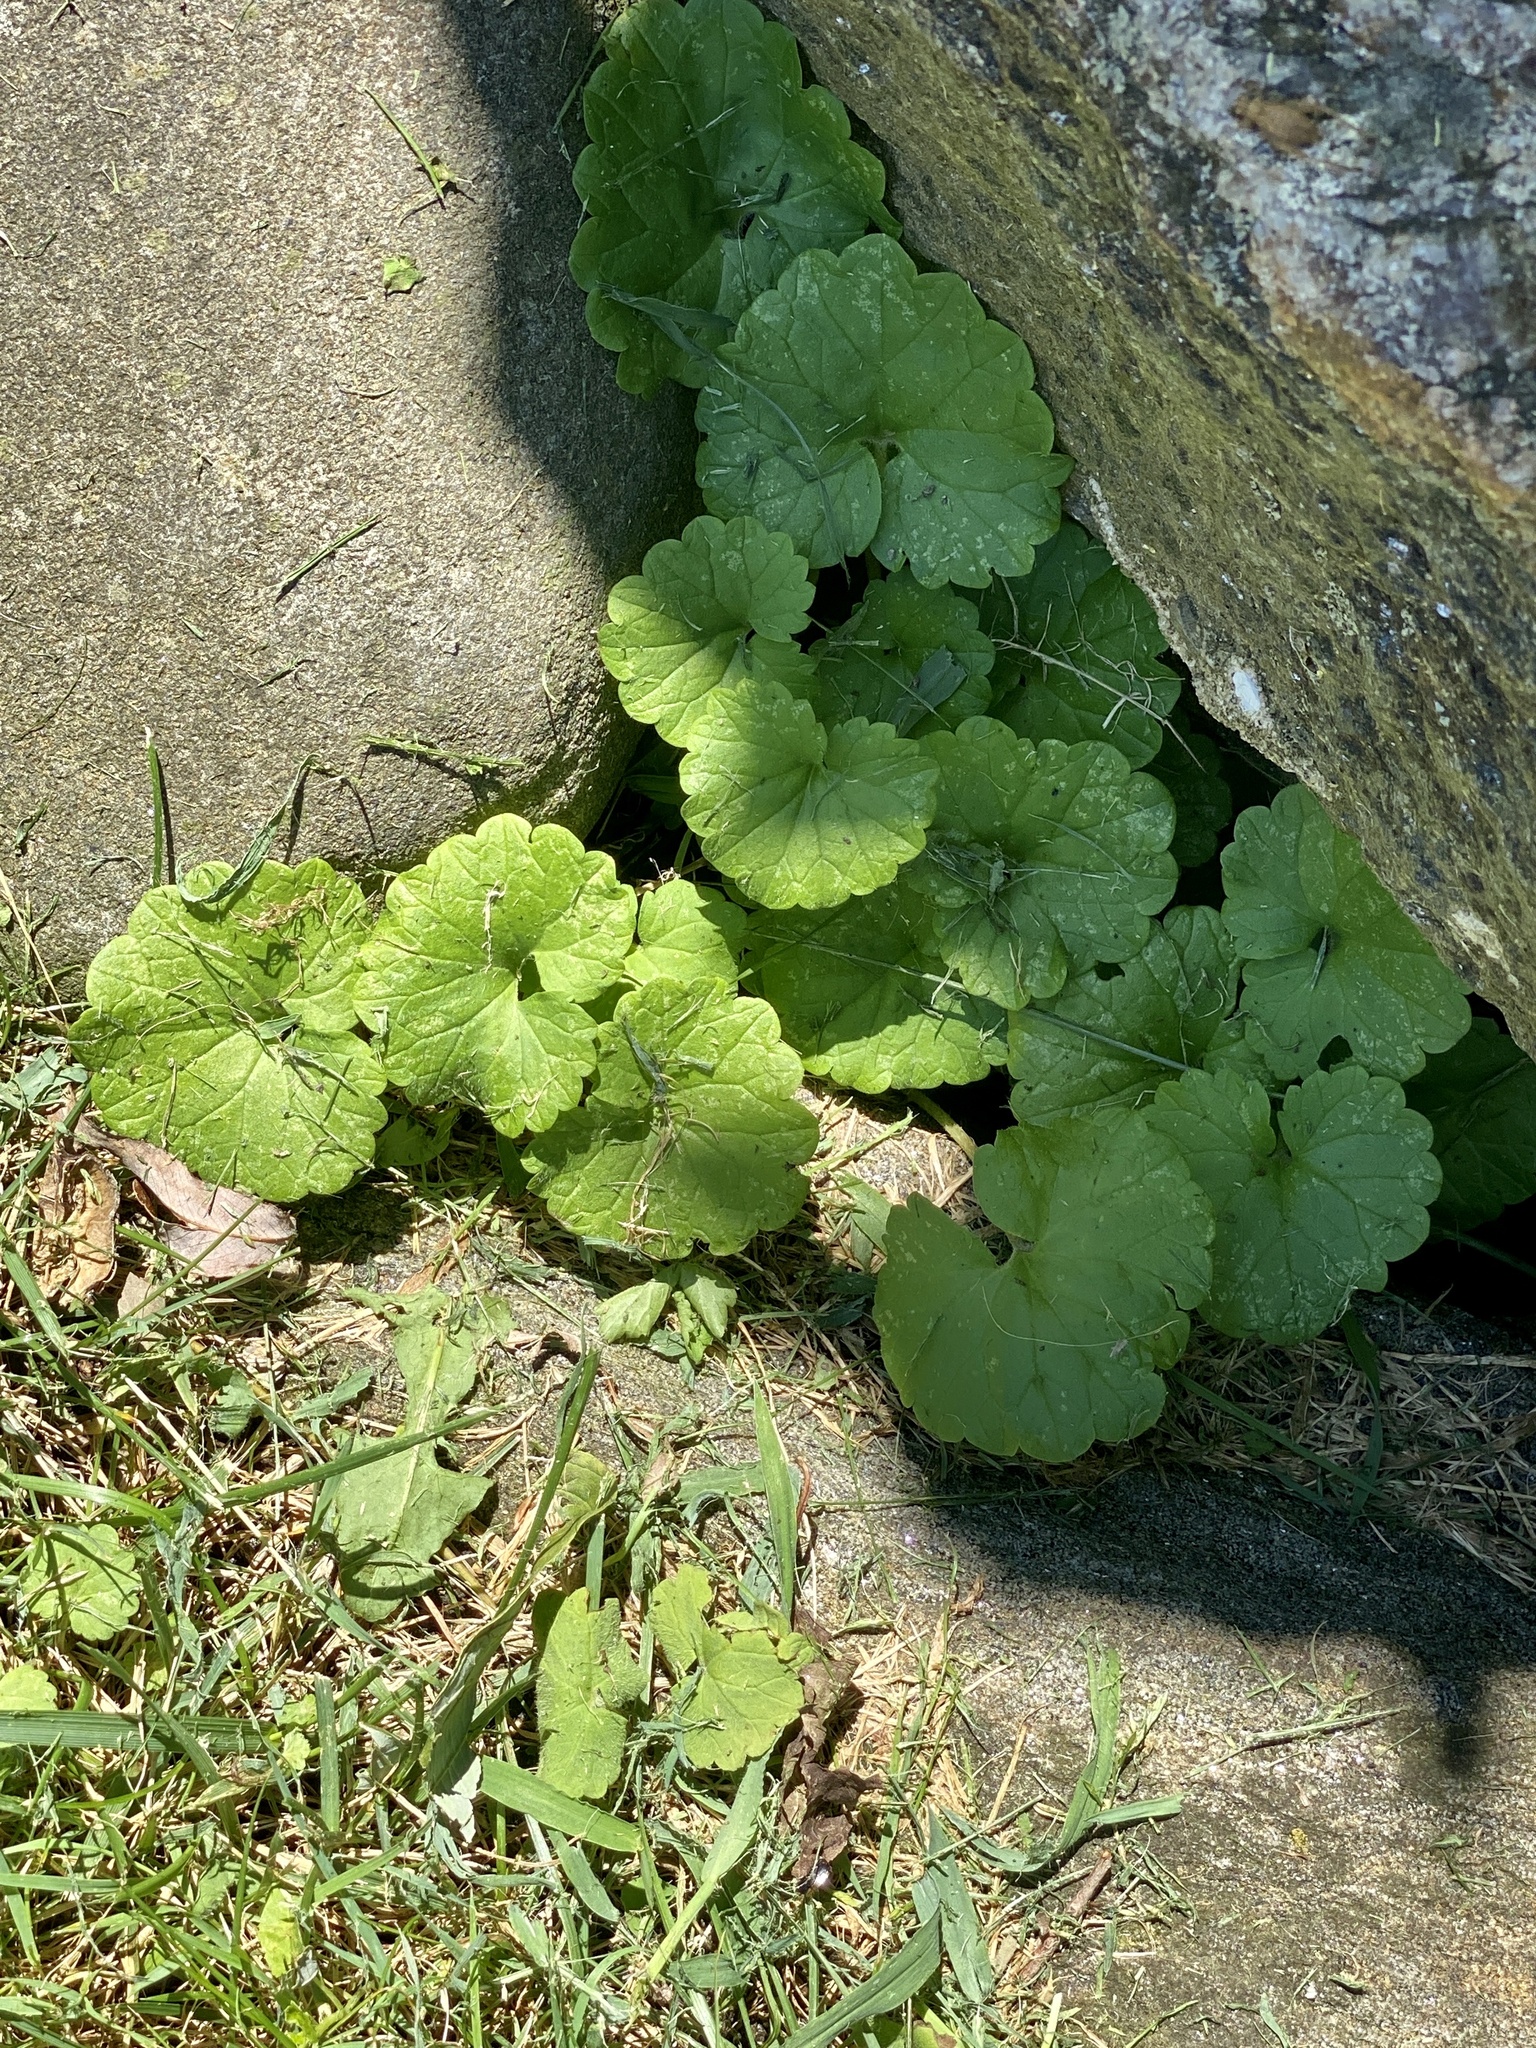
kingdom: Plantae
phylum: Tracheophyta
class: Magnoliopsida
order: Lamiales
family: Lamiaceae
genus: Glechoma
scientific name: Glechoma hederacea
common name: Ground ivy
